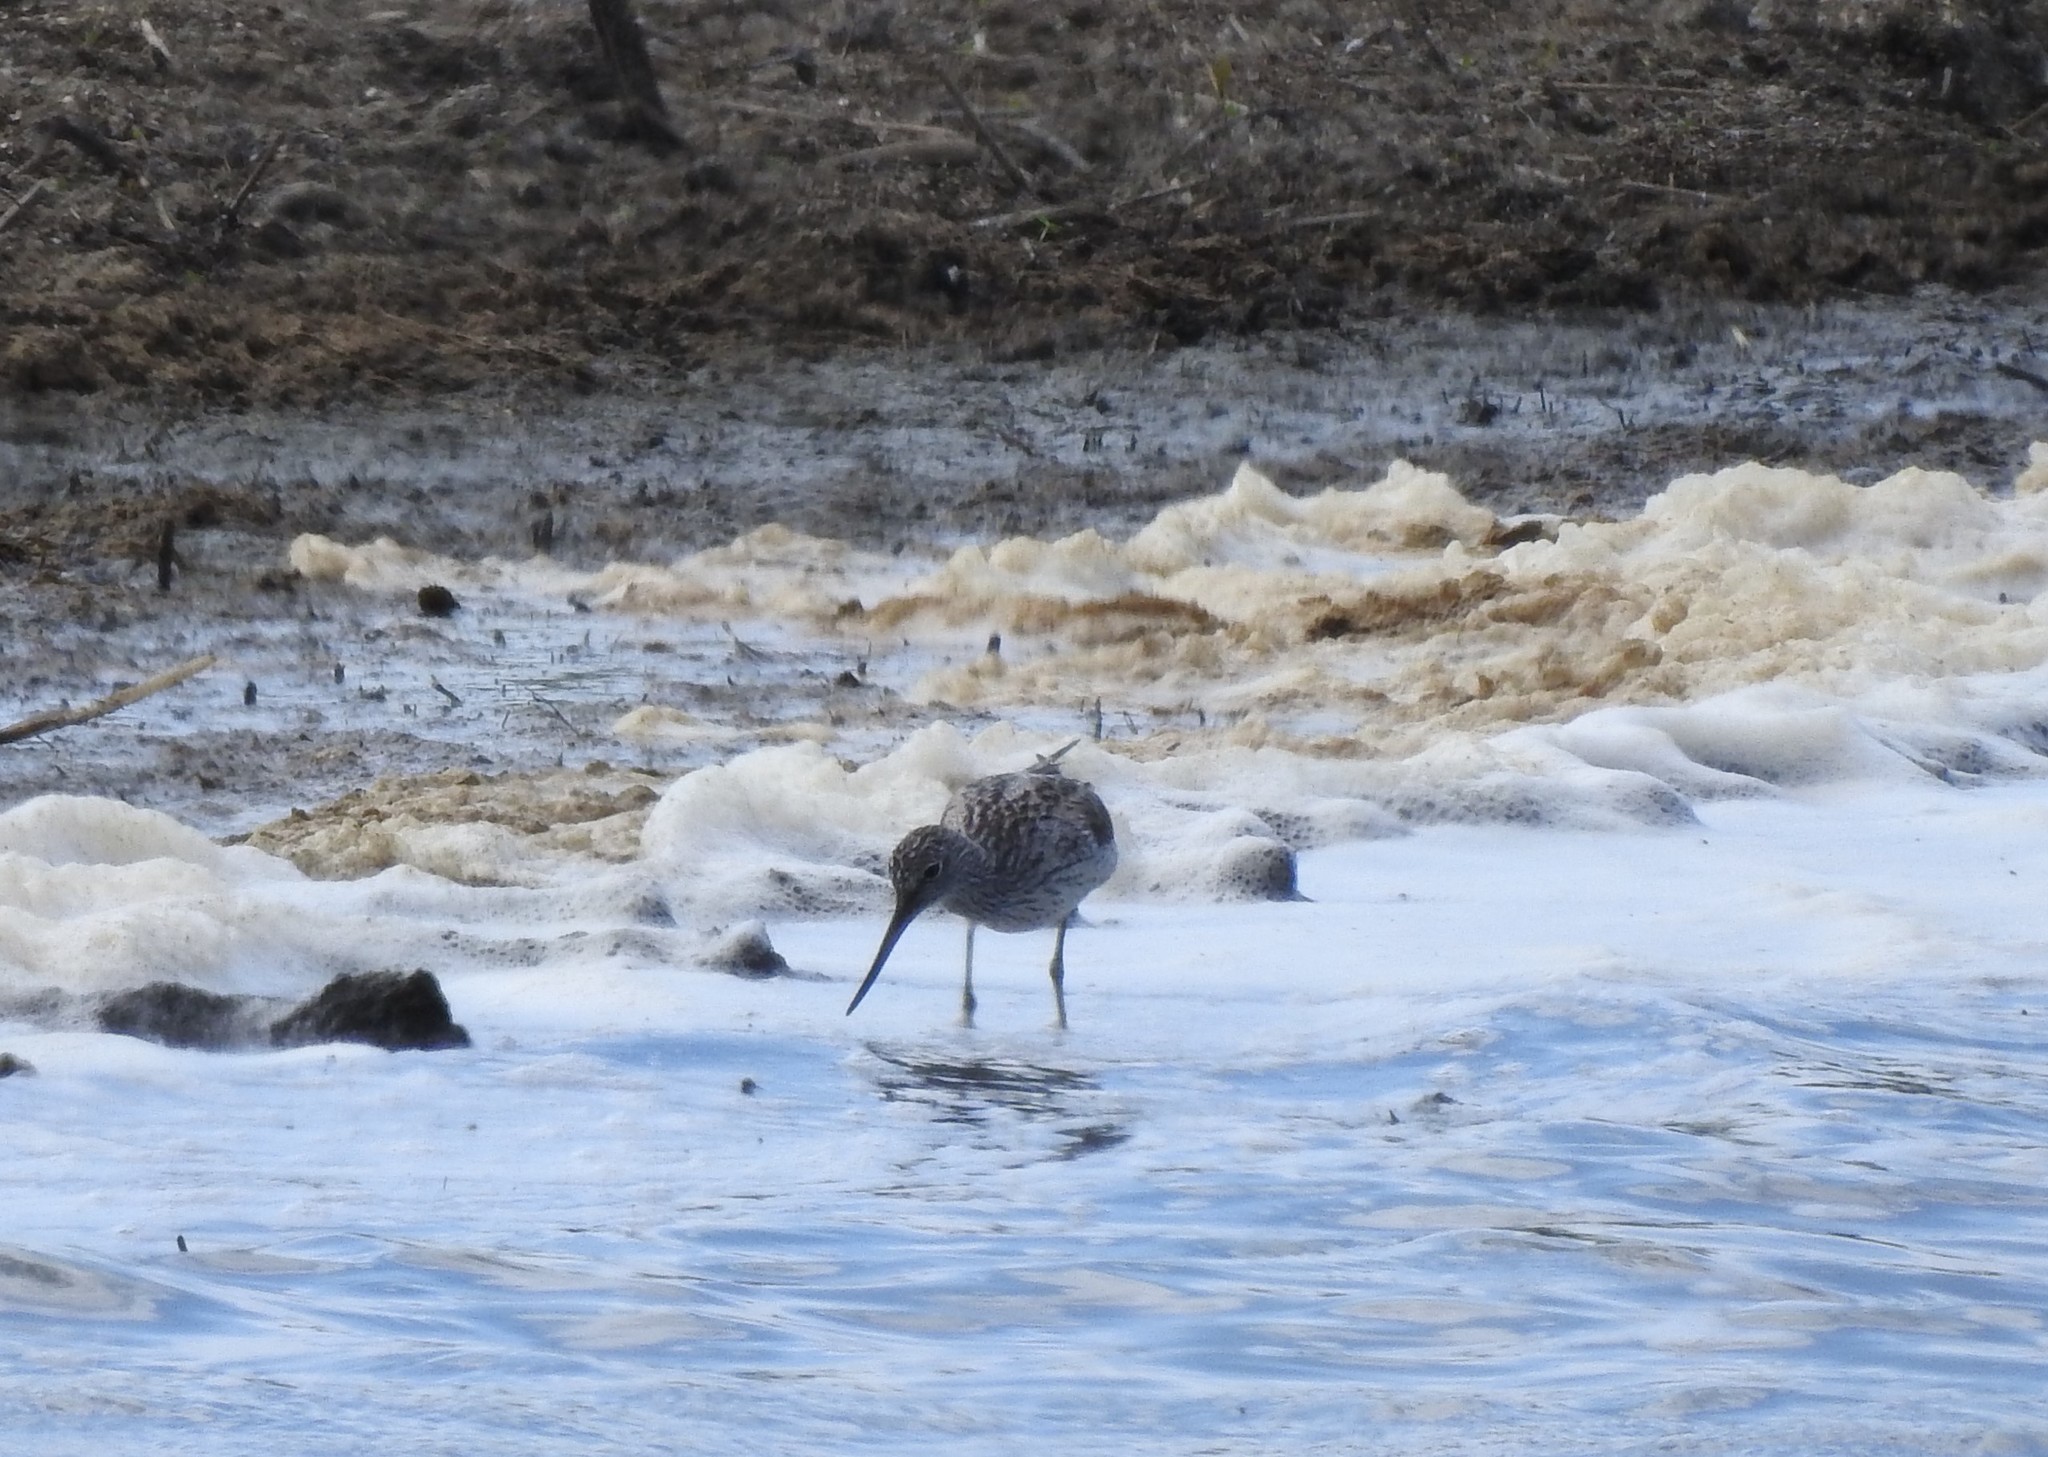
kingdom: Animalia
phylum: Chordata
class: Aves
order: Charadriiformes
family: Scolopacidae
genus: Tringa
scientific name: Tringa nebularia
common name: Common greenshank
